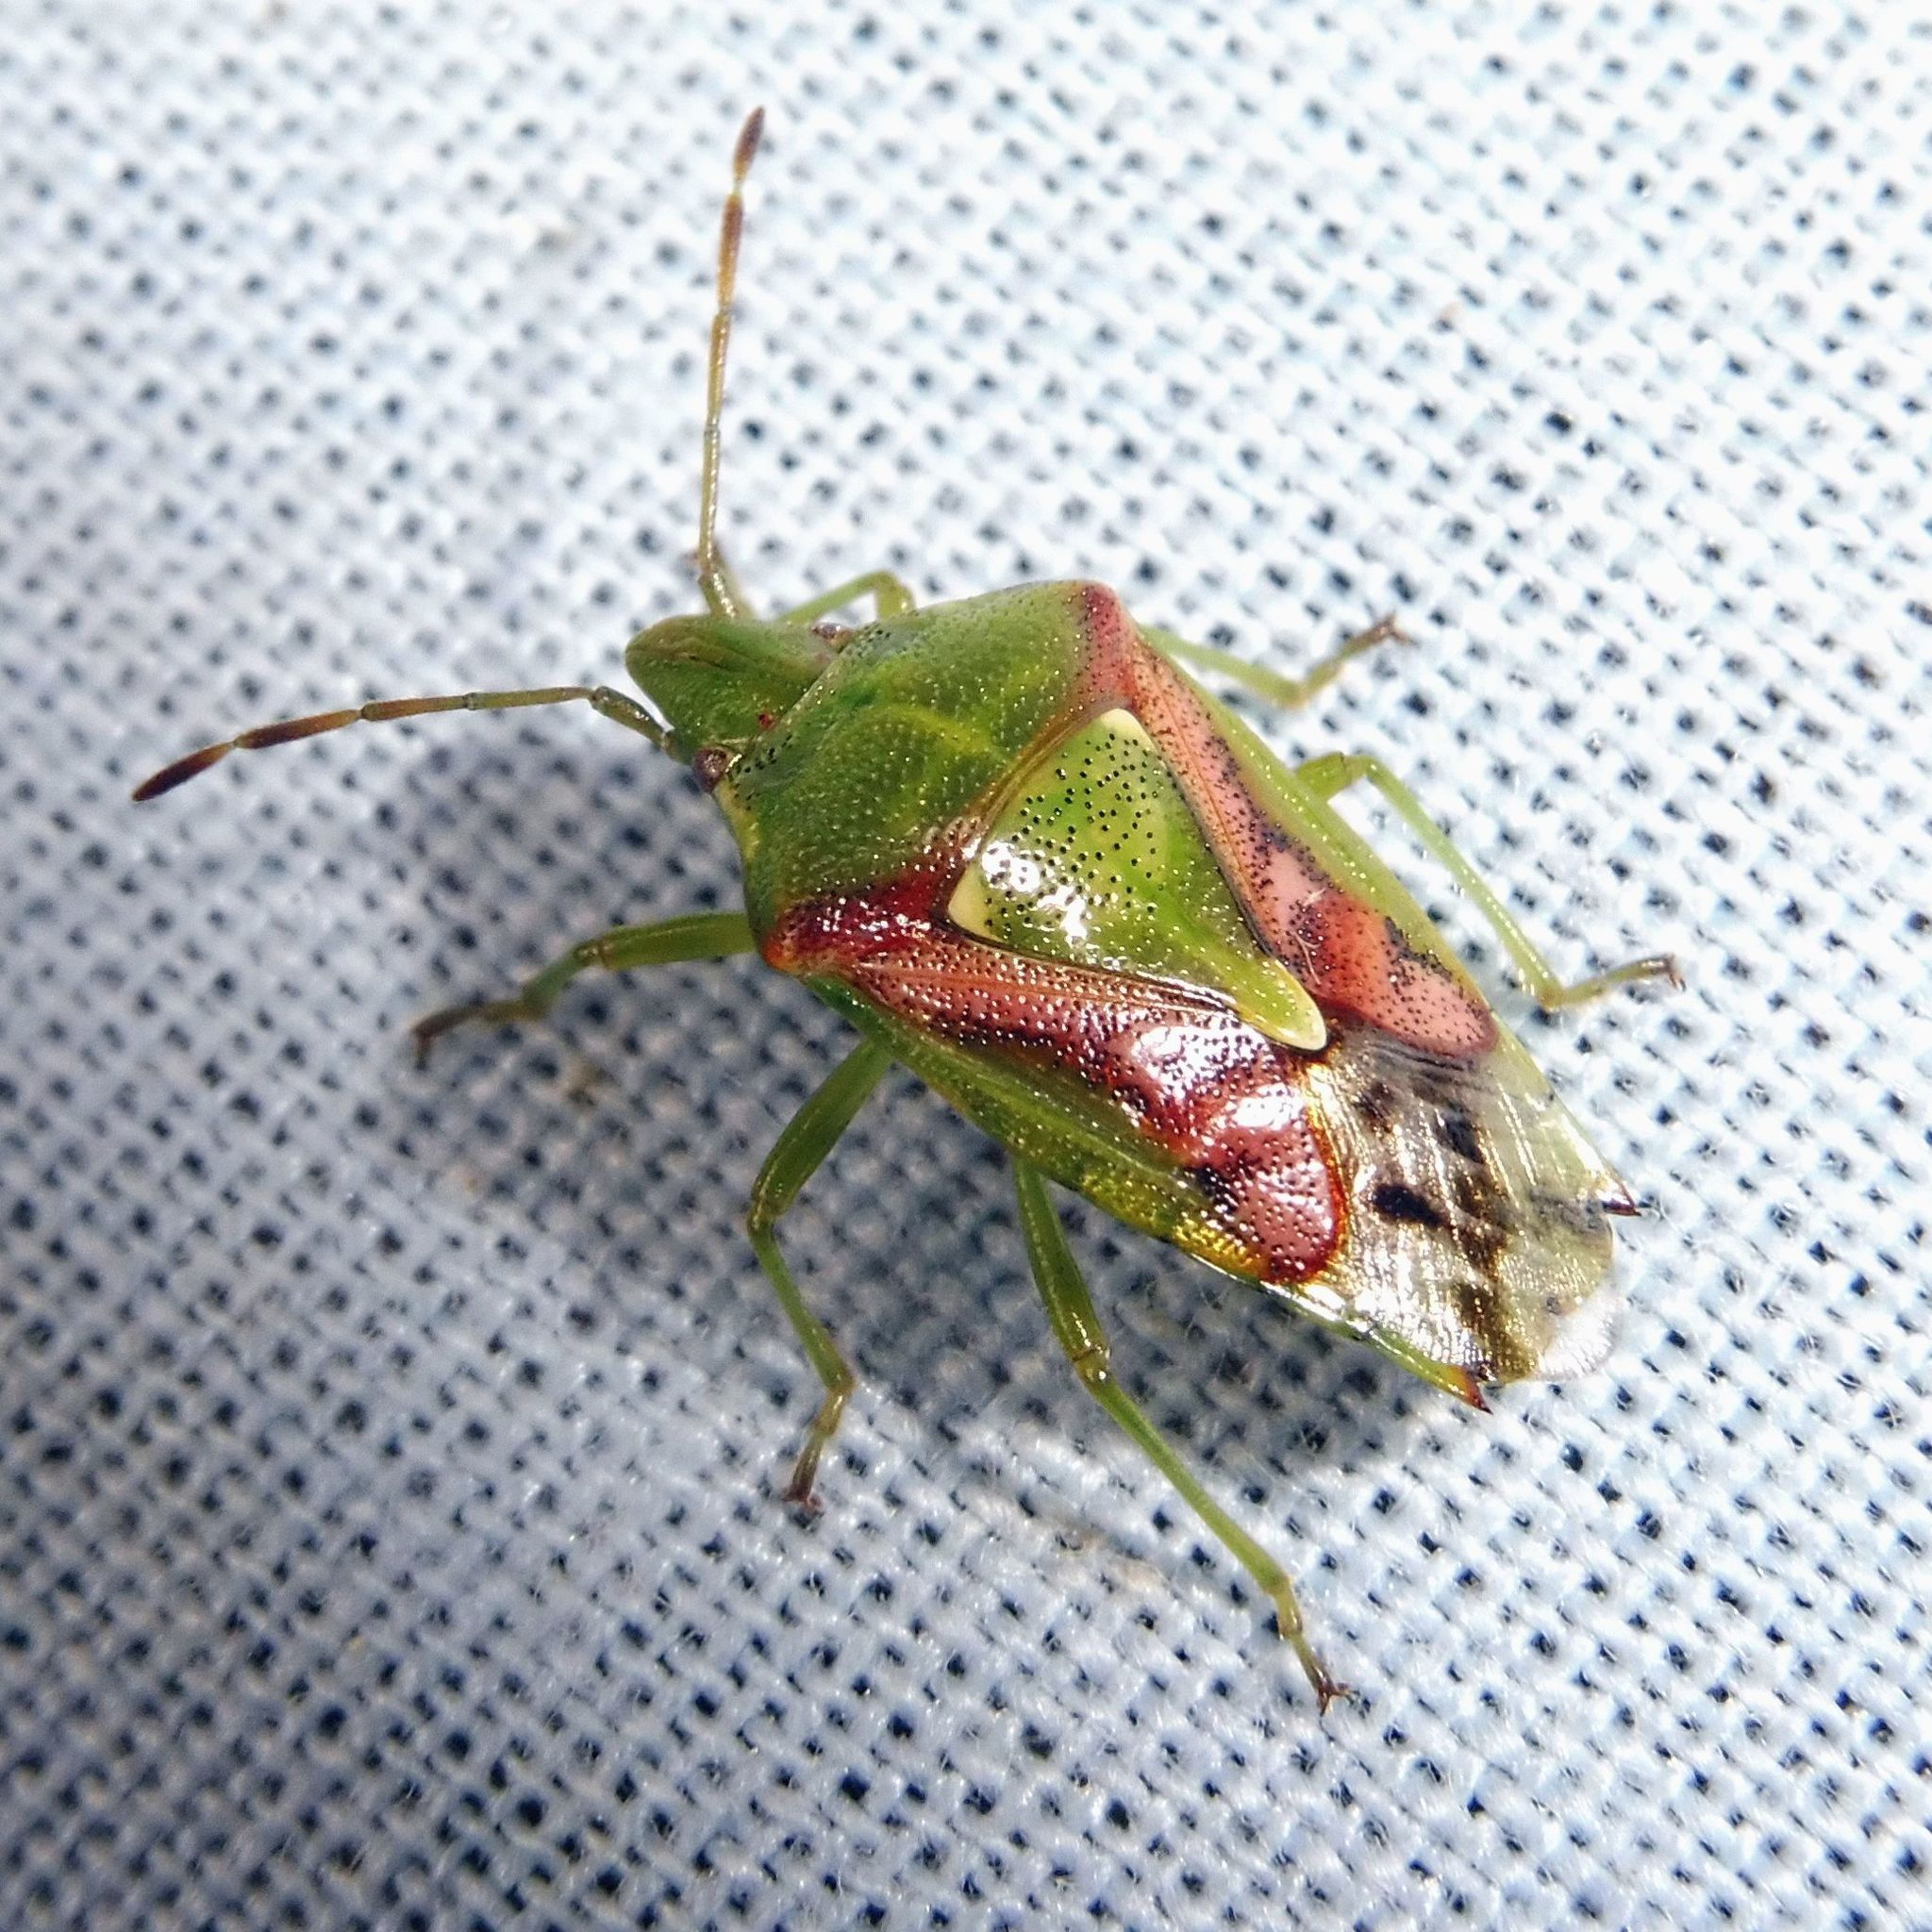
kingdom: Animalia
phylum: Arthropoda
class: Insecta
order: Hemiptera
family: Acanthosomatidae
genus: Cyphostethus
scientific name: Cyphostethus tristriatus
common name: Juniper shieldbug
